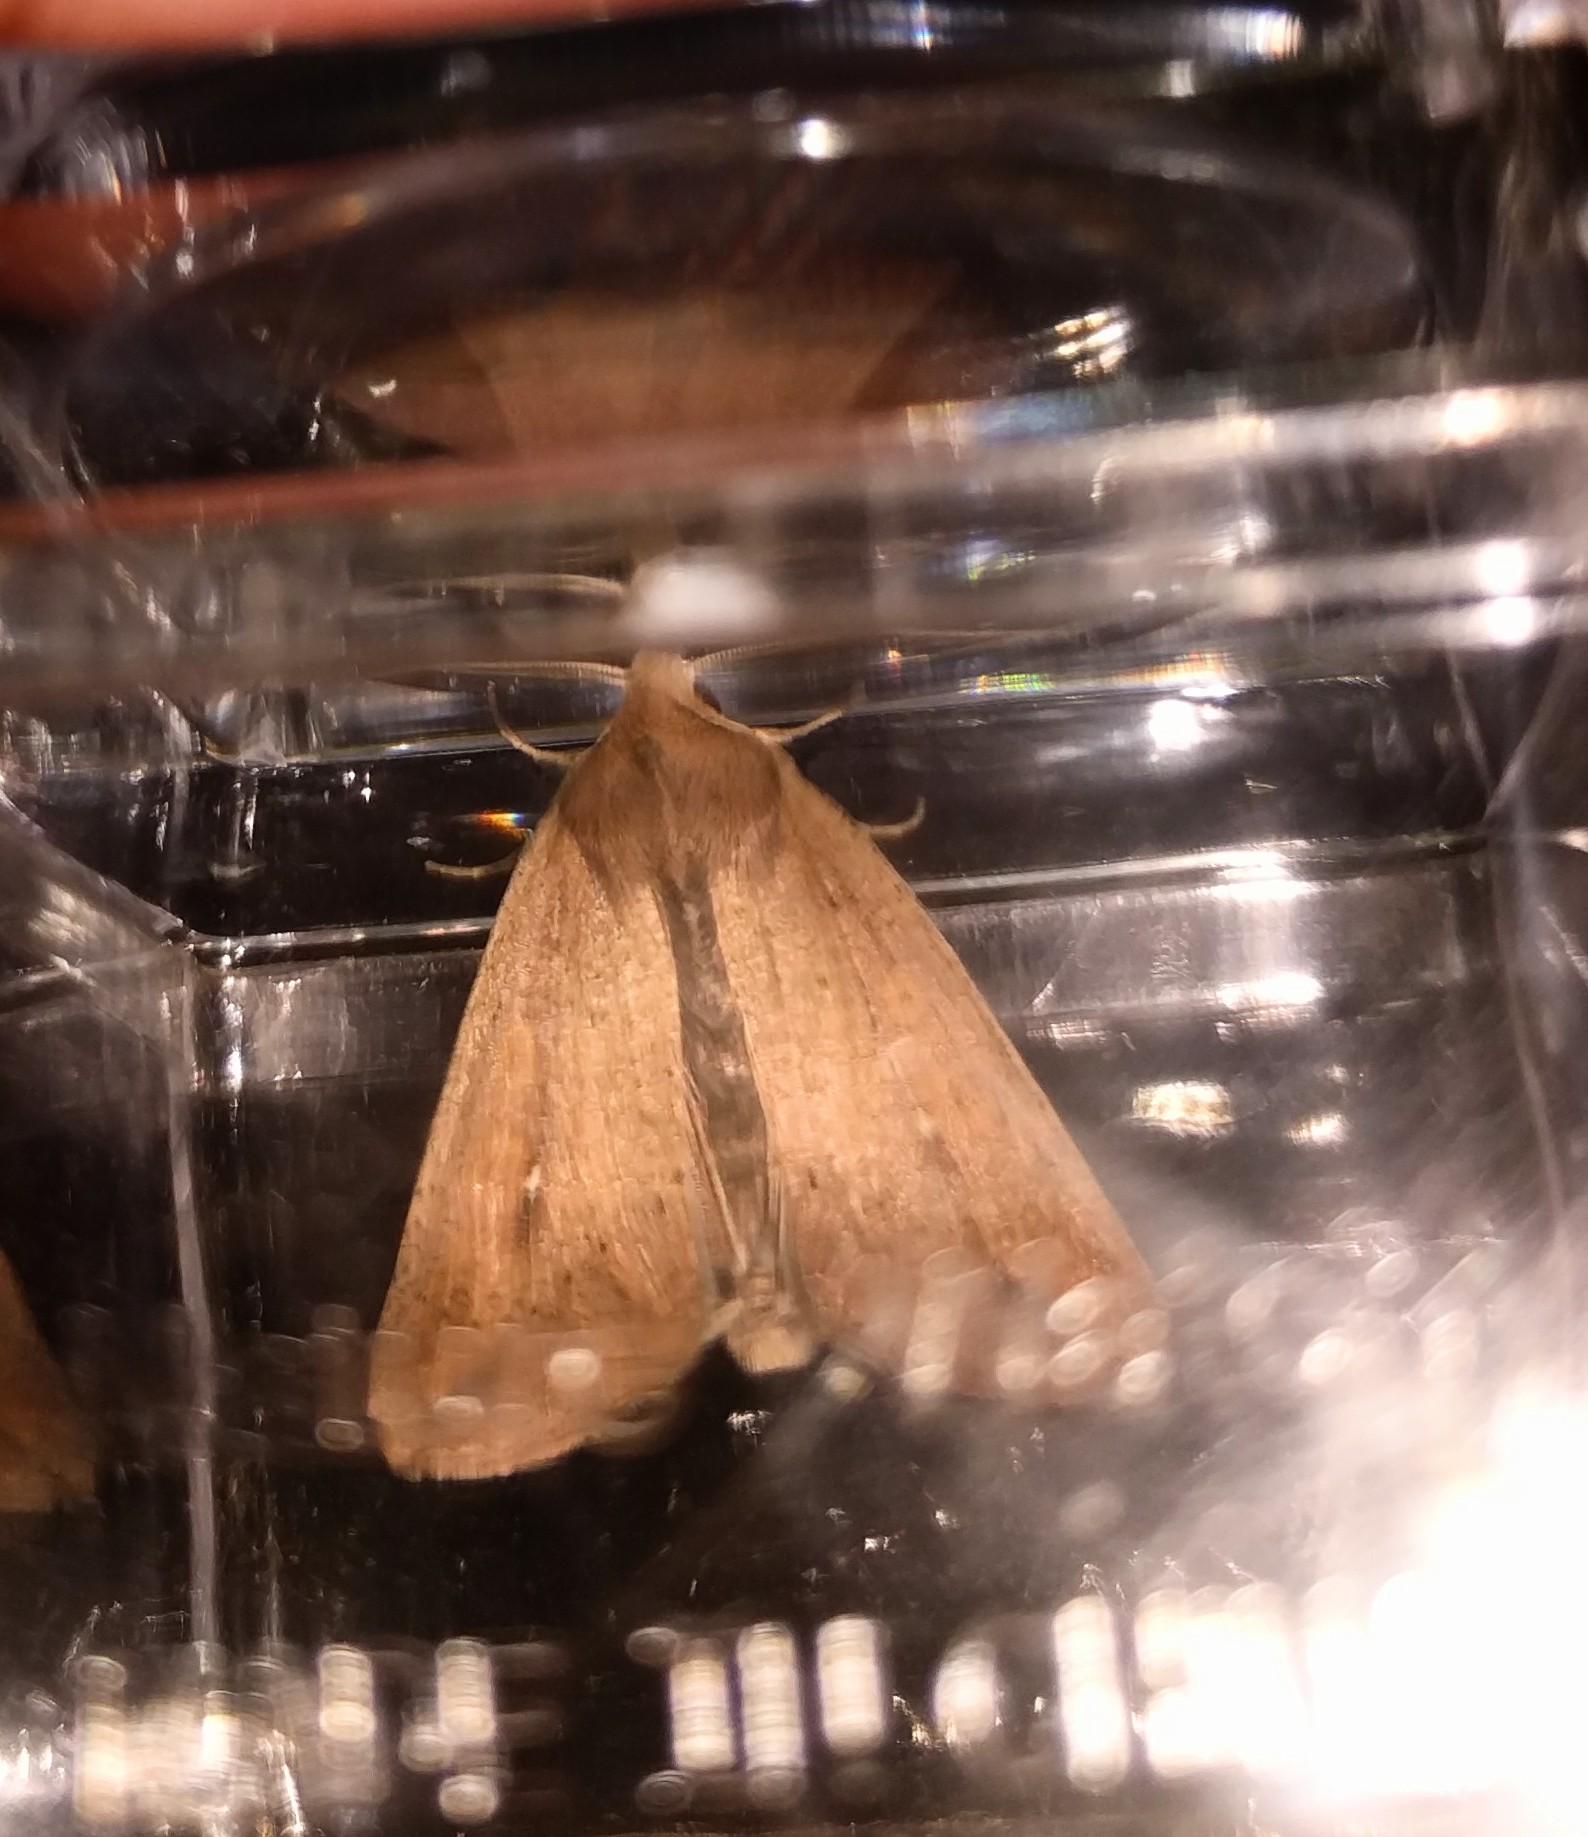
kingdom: Animalia
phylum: Arthropoda
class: Insecta
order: Lepidoptera
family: Noctuidae
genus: Mythimna
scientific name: Mythimna unipuncta
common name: White-speck
